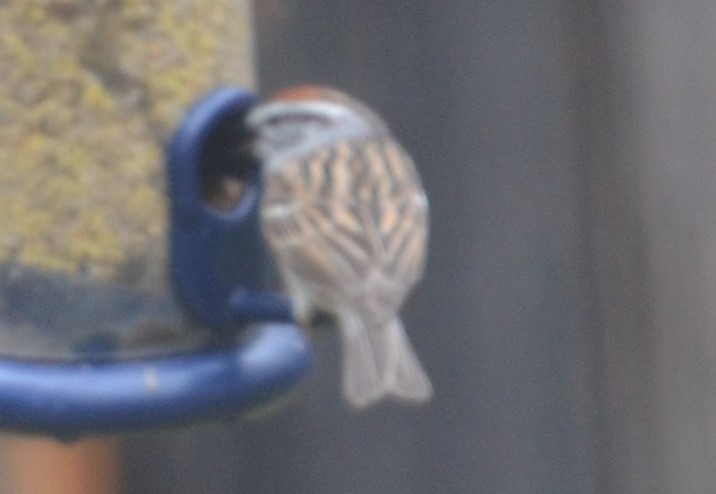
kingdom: Animalia
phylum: Chordata
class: Aves
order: Passeriformes
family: Passerellidae
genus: Spizella
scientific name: Spizella passerina
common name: Chipping sparrow
